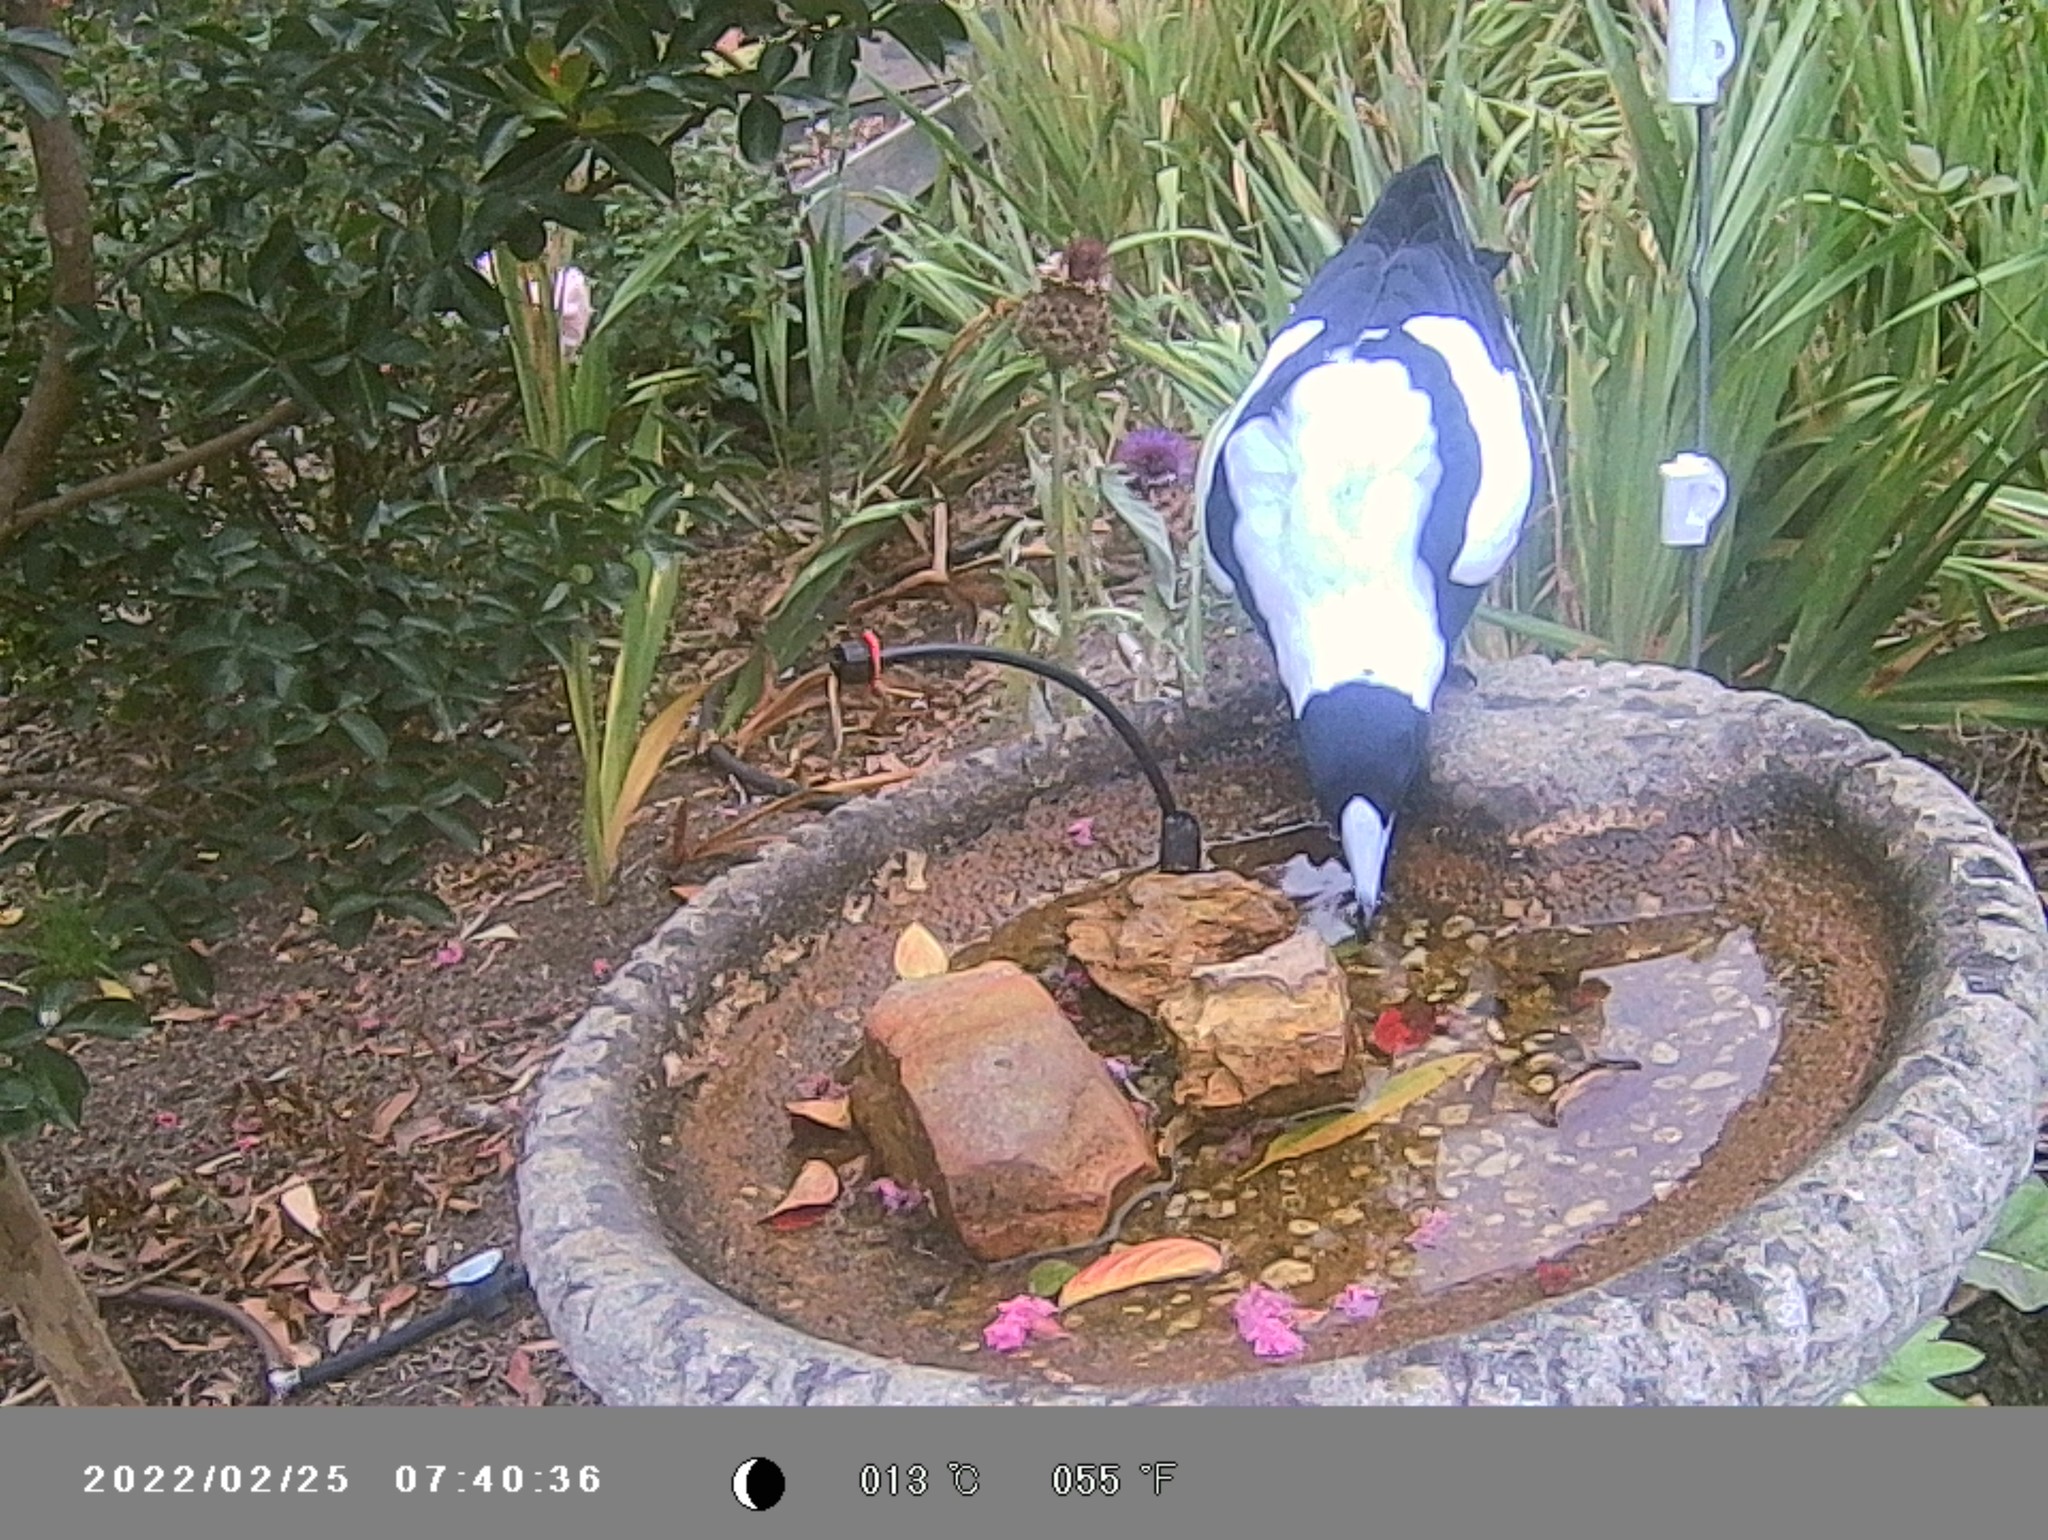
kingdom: Animalia
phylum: Chordata
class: Aves
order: Passeriformes
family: Cracticidae
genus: Gymnorhina
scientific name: Gymnorhina tibicen
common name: Australian magpie
